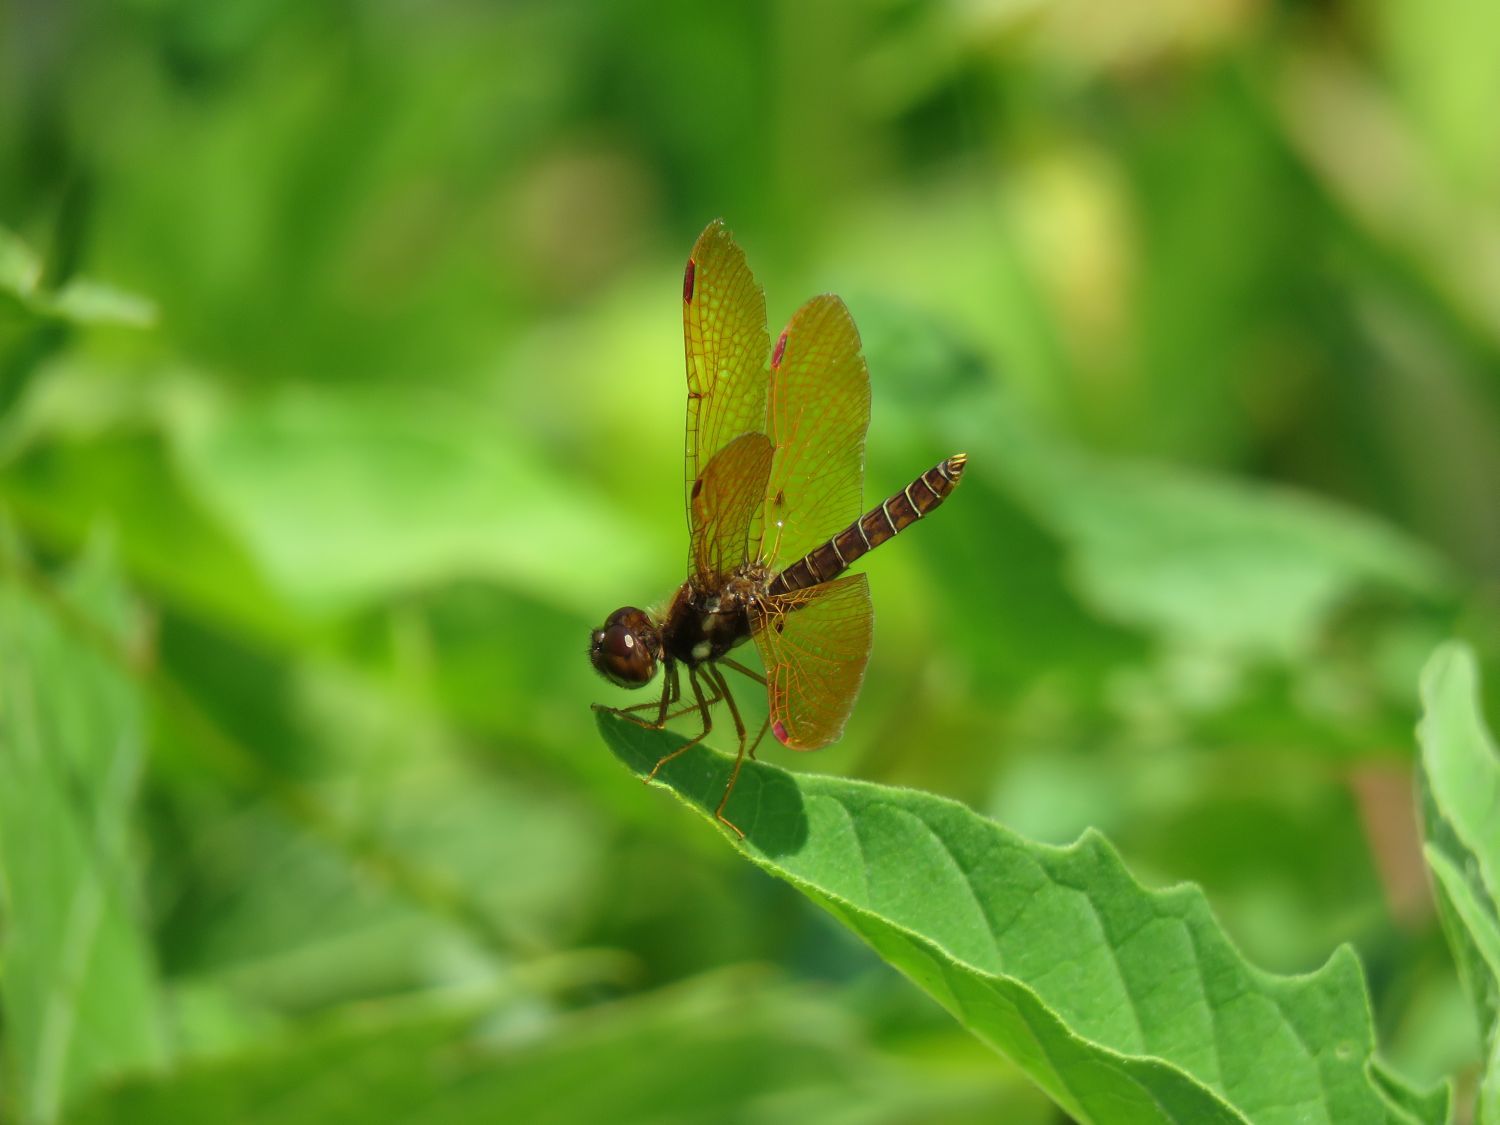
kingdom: Animalia
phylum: Arthropoda
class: Insecta
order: Odonata
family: Libellulidae
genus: Perithemis
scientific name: Perithemis tenera
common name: Eastern amberwing
